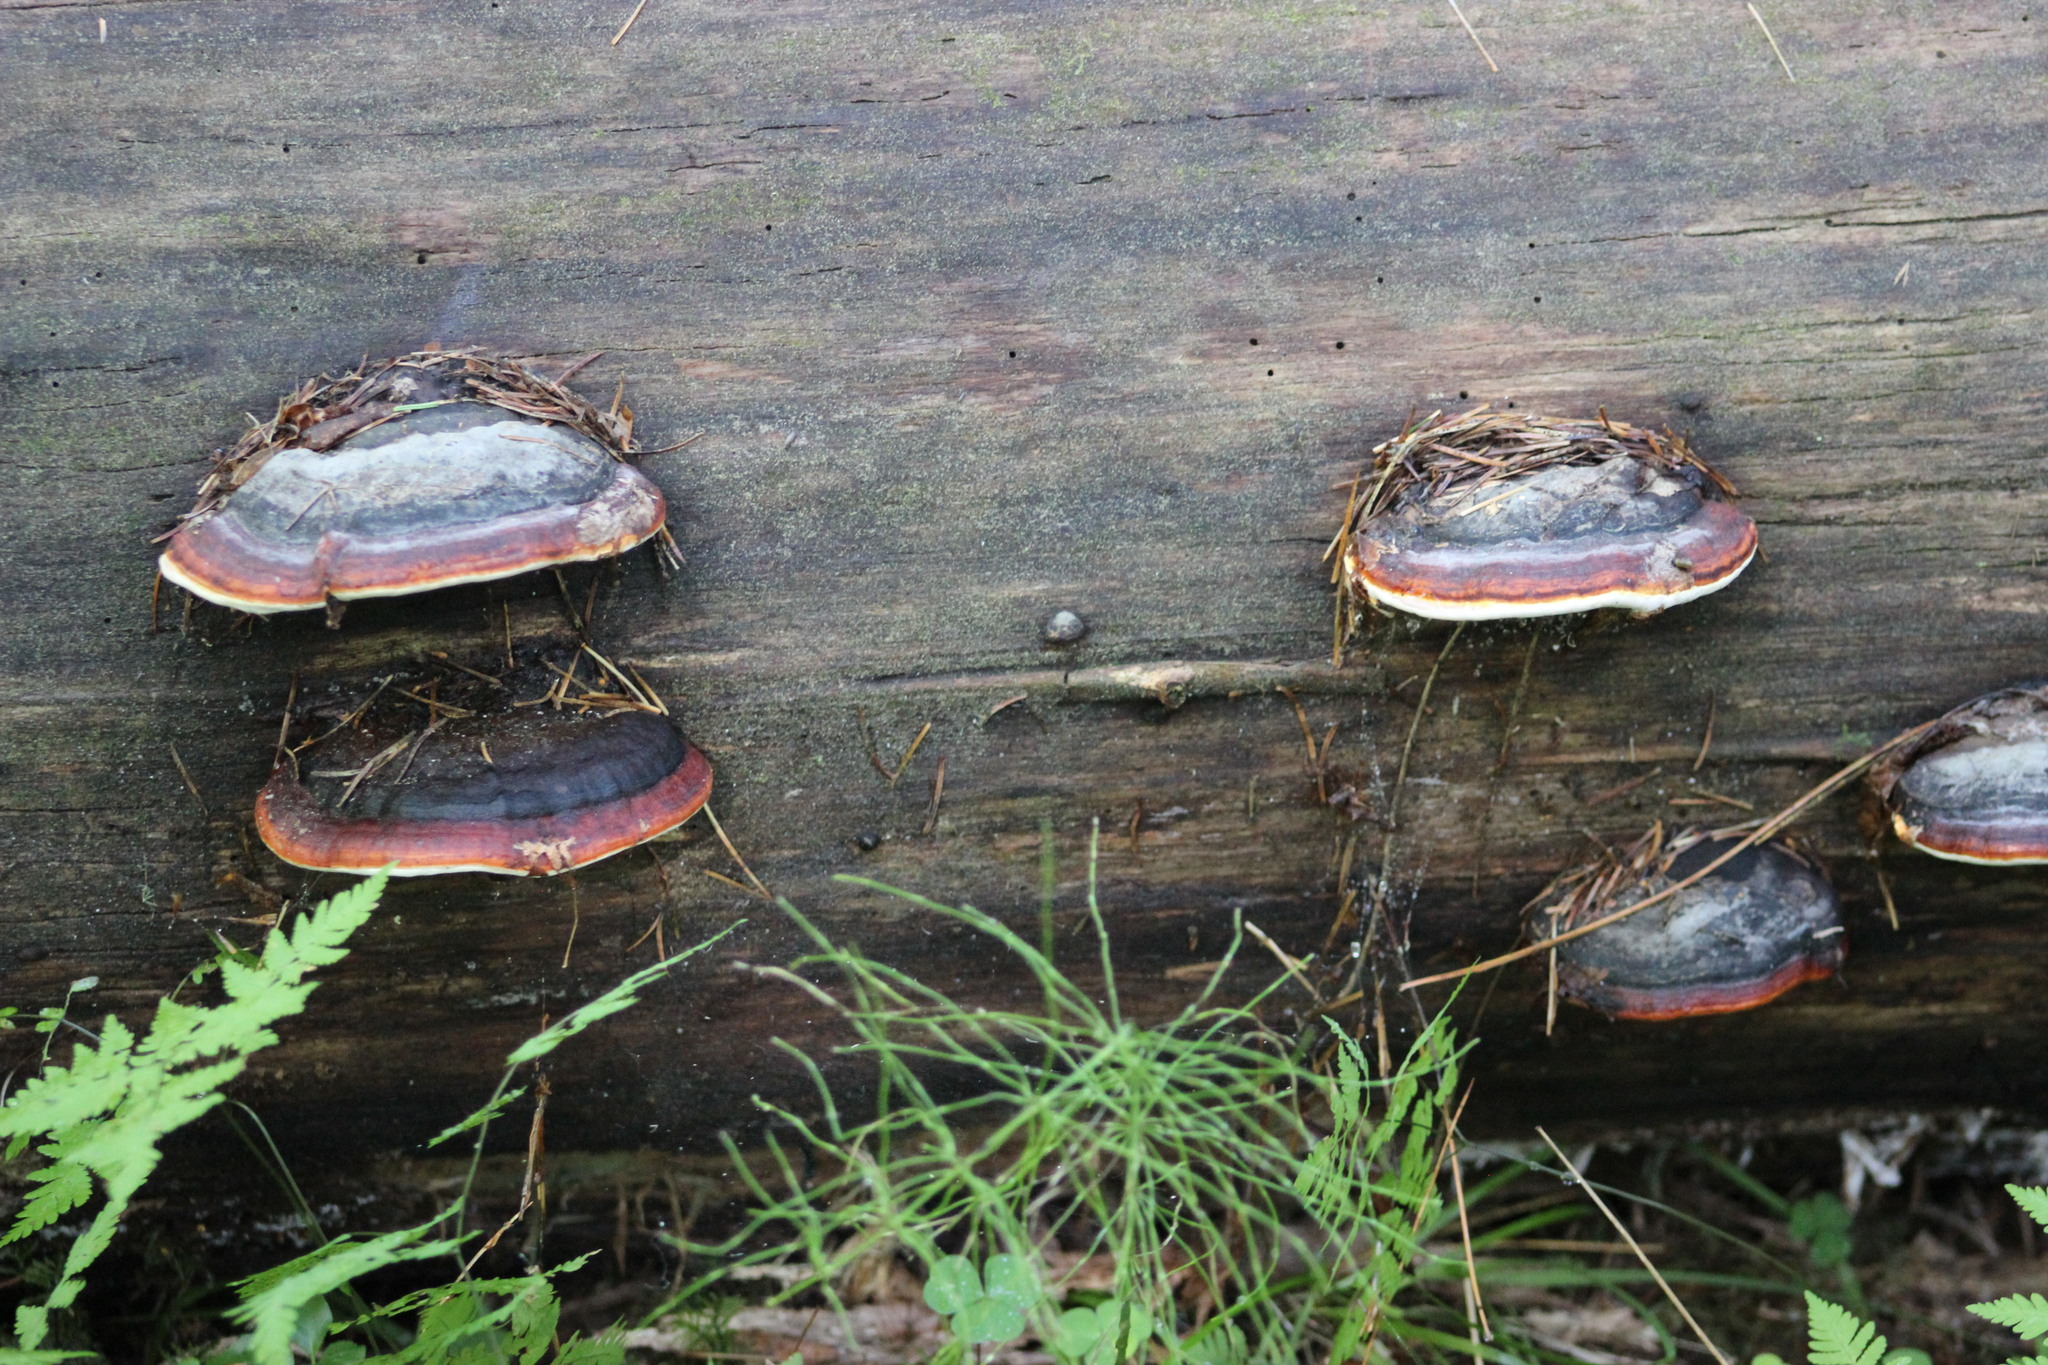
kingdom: Fungi
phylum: Basidiomycota
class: Agaricomycetes
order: Polyporales
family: Fomitopsidaceae
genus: Fomitopsis
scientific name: Fomitopsis pinicola
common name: Red-belted bracket
